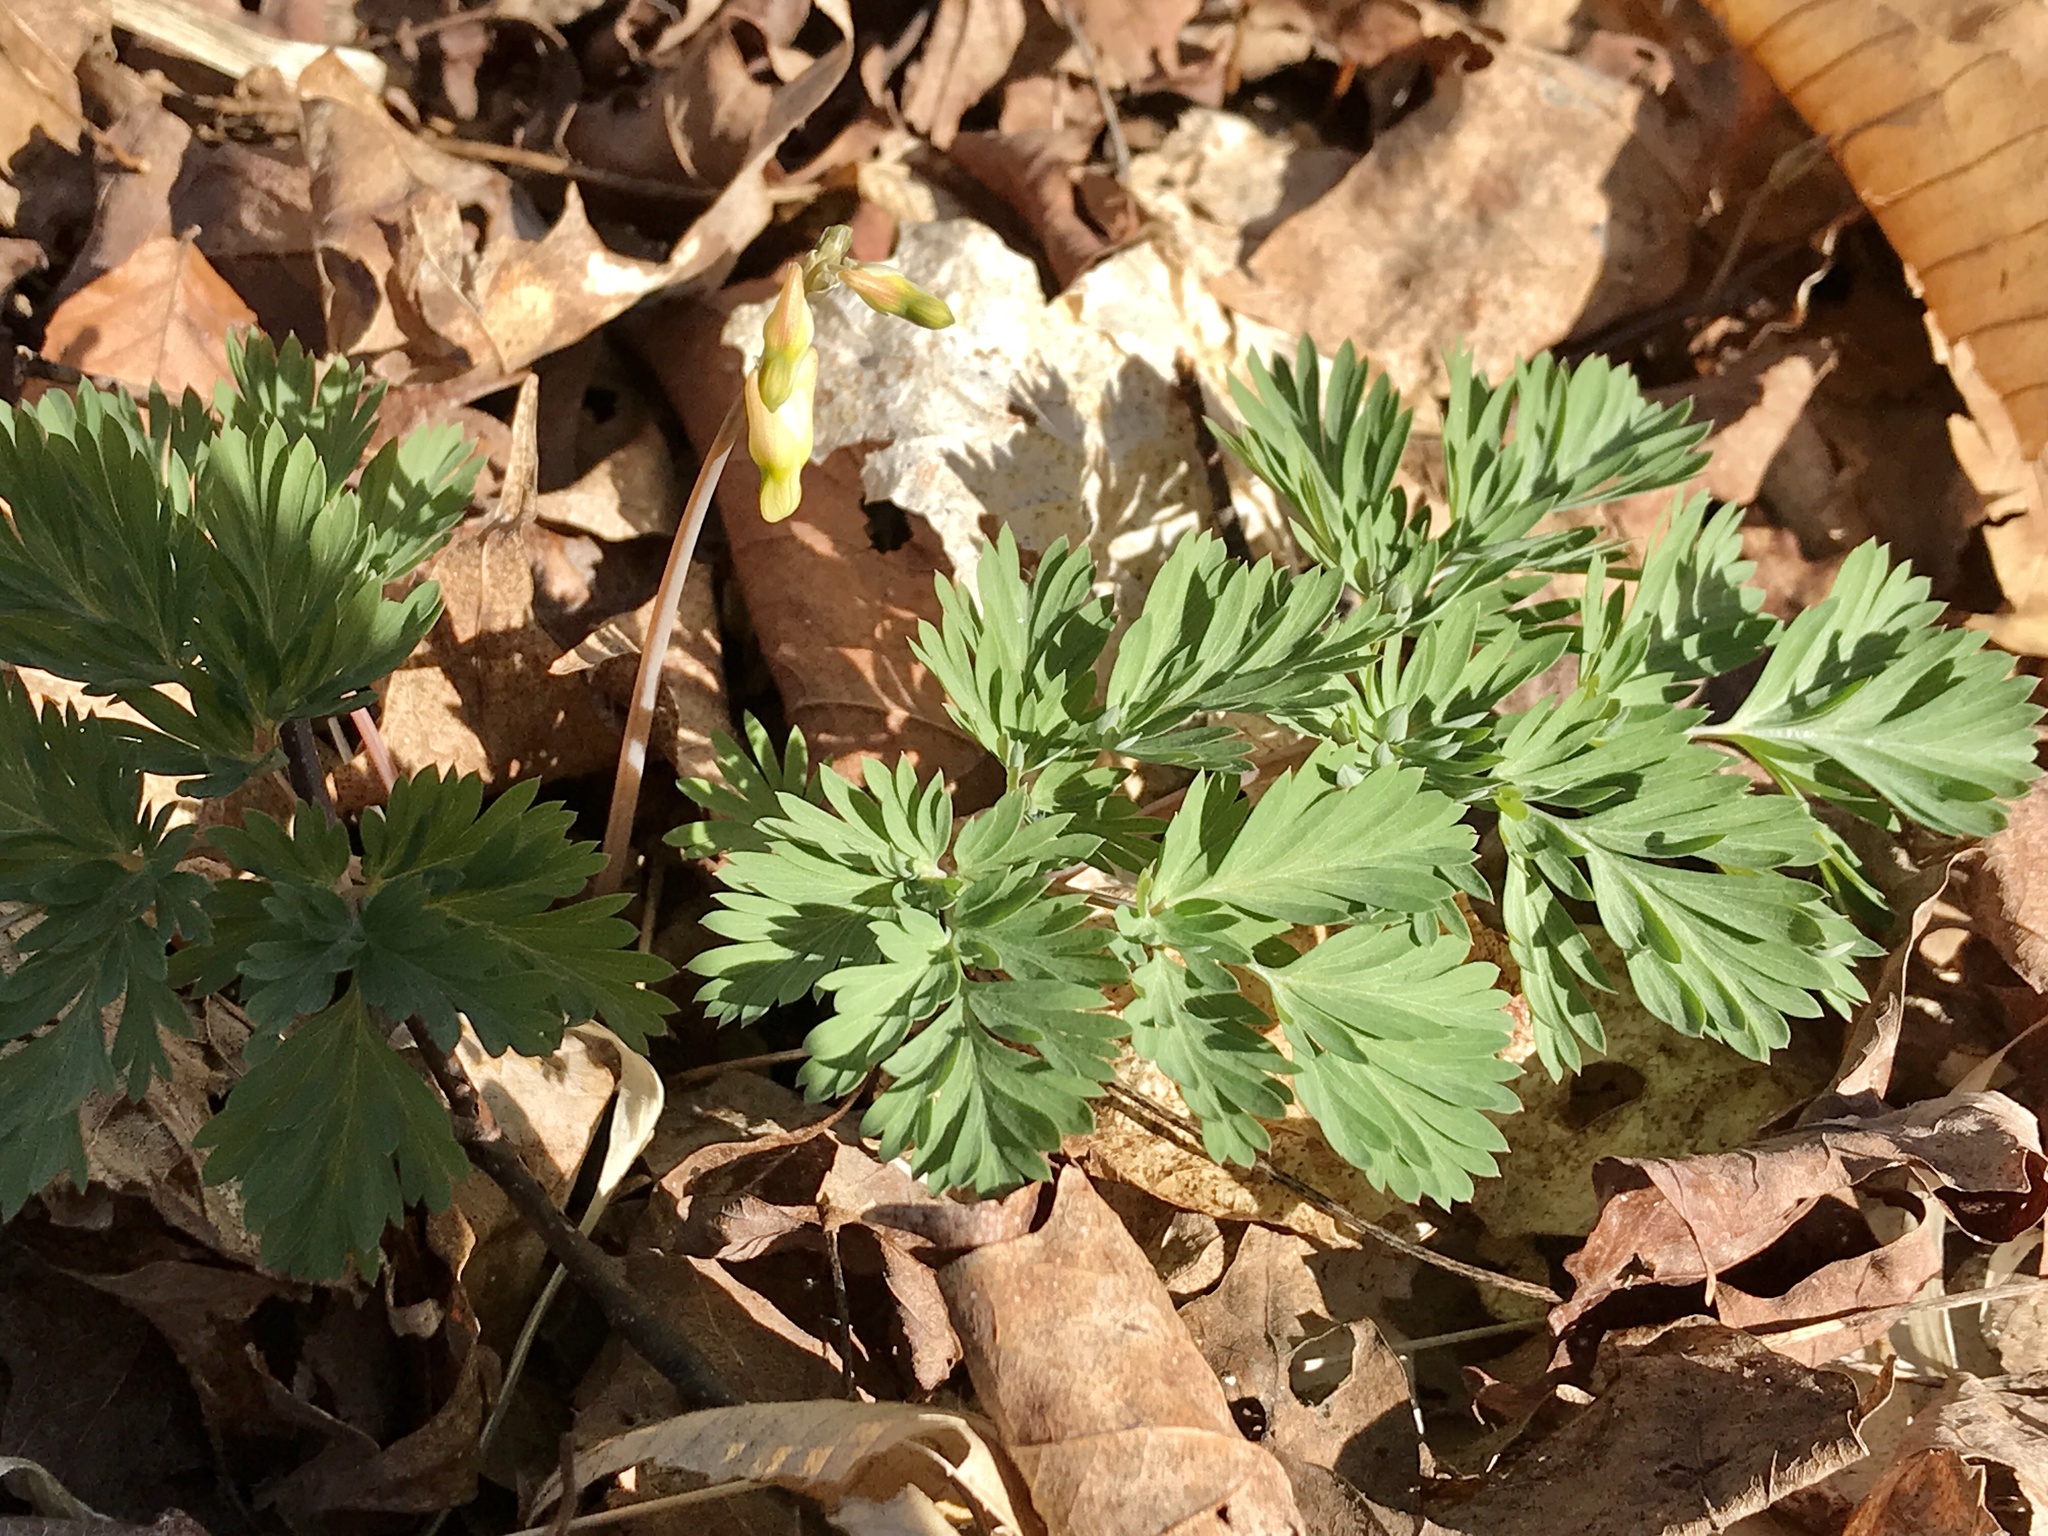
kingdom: Plantae
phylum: Tracheophyta
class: Magnoliopsida
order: Ranunculales
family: Papaveraceae
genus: Dicentra
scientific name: Dicentra cucullaria
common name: Dutchman's breeches
